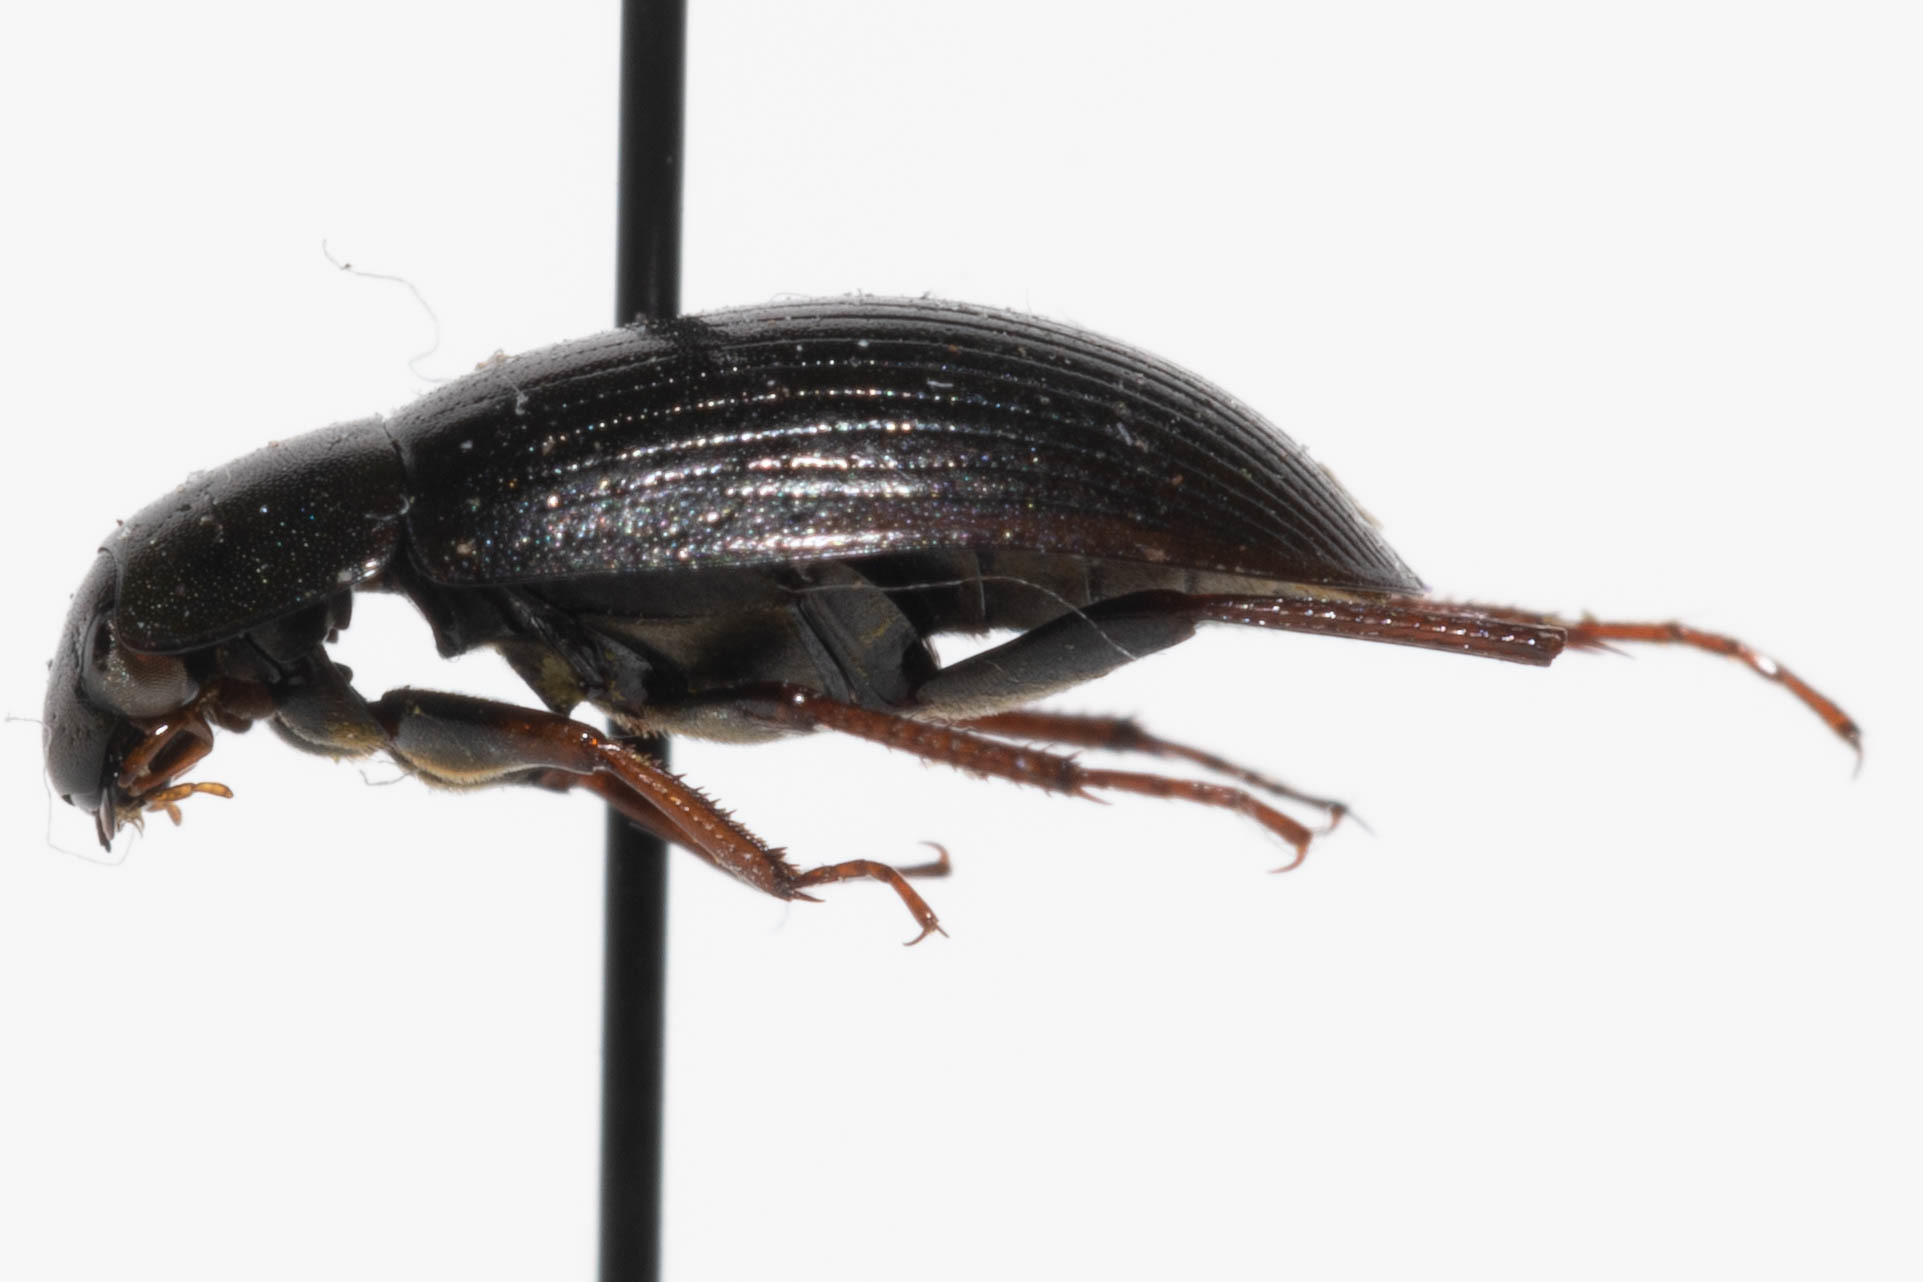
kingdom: Animalia
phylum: Arthropoda
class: Insecta
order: Coleoptera
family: Hydrophilidae
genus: Hydrobius
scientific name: Hydrobius fuscipes
